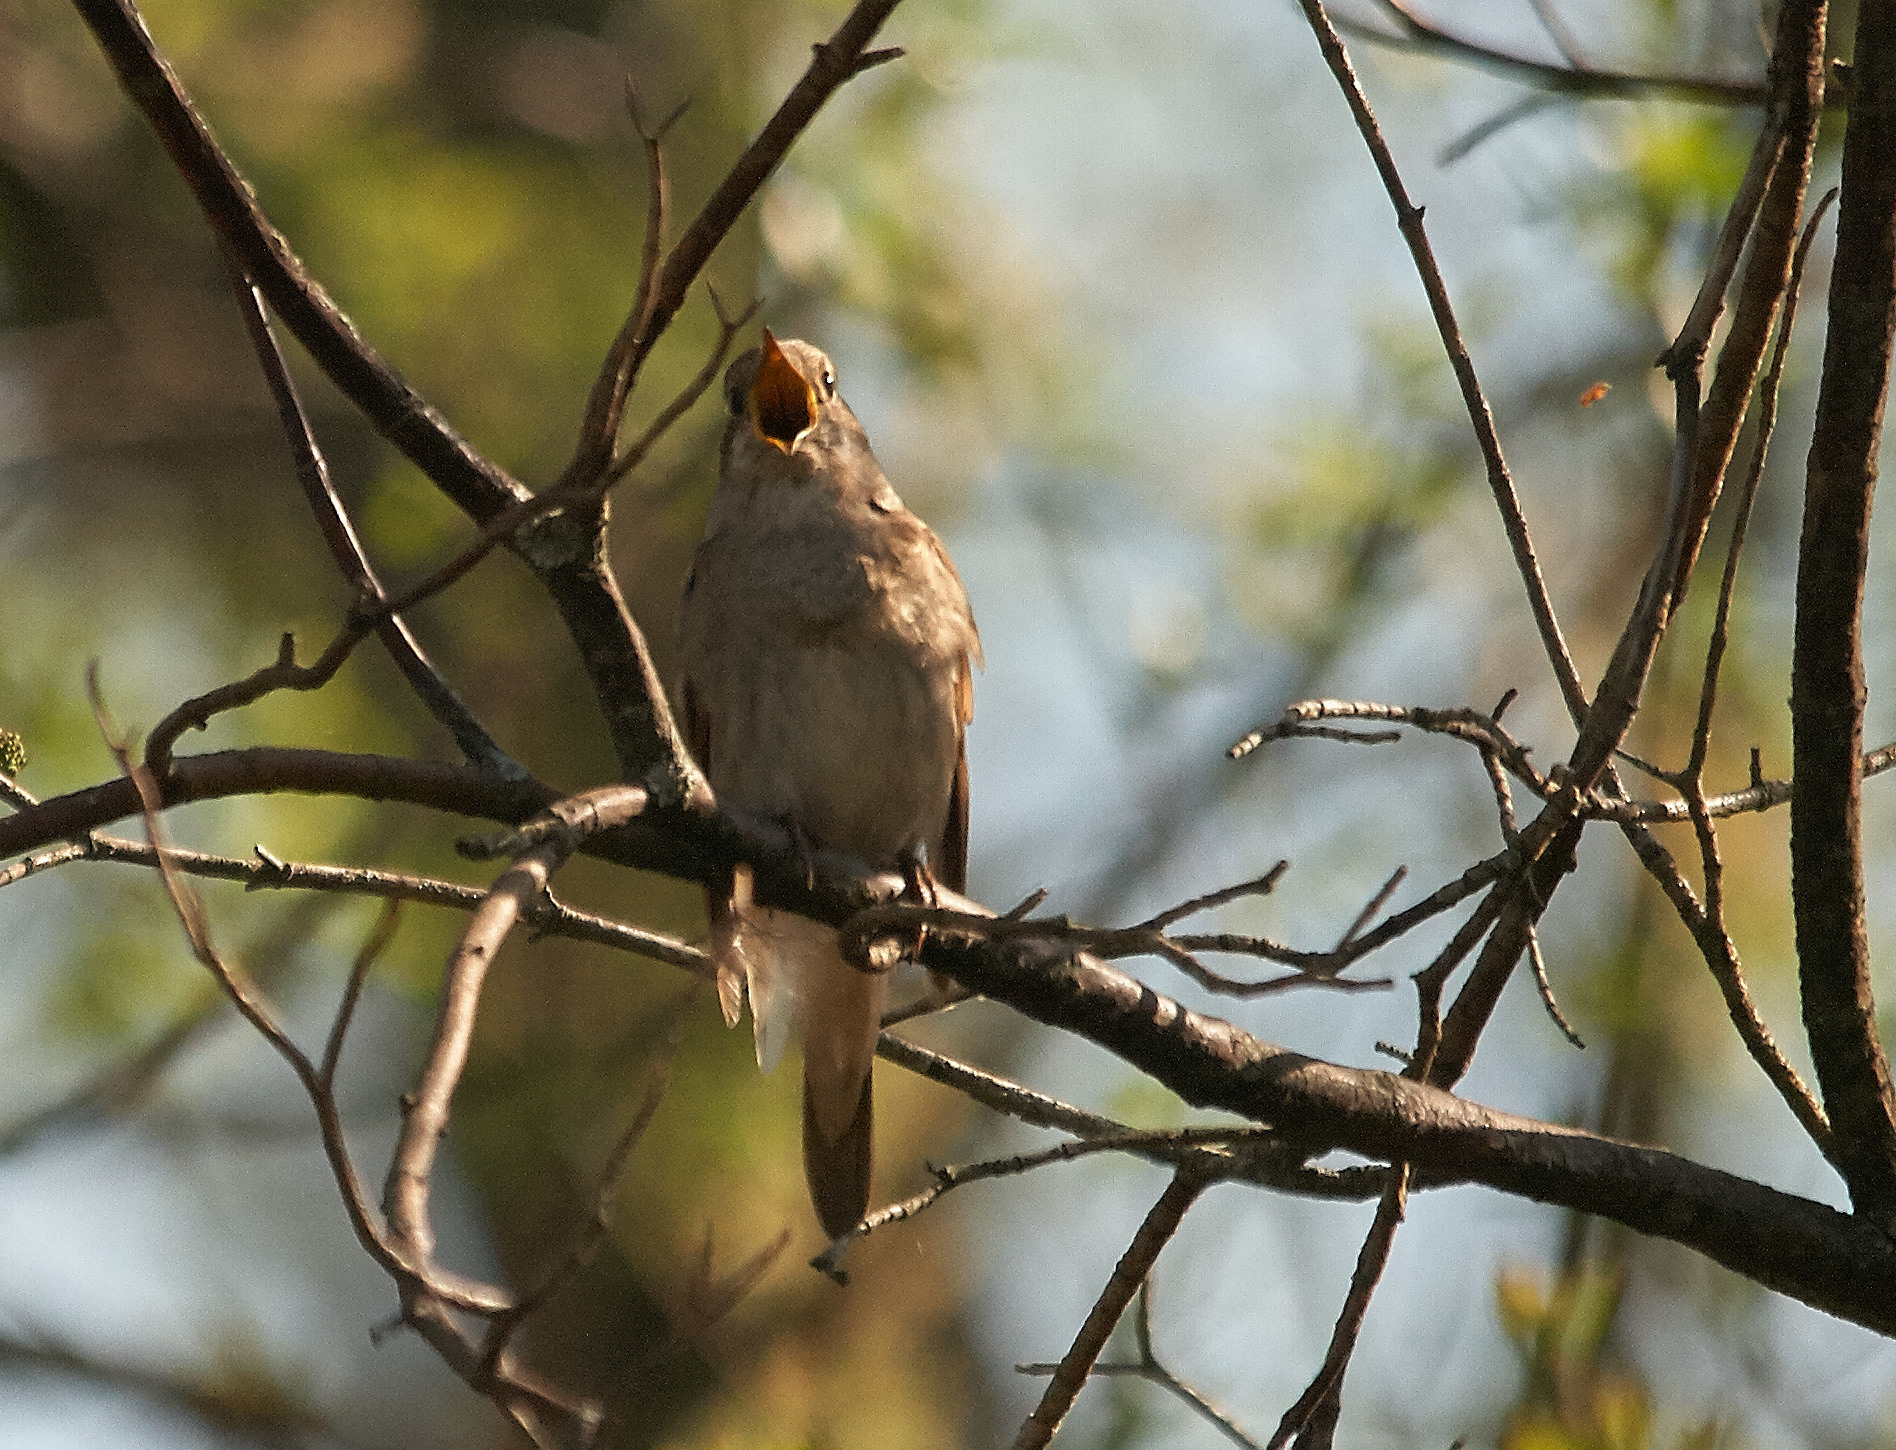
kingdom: Animalia
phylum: Chordata
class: Aves
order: Passeriformes
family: Muscicapidae
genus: Luscinia
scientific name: Luscinia luscinia
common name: Thrush nightingale
